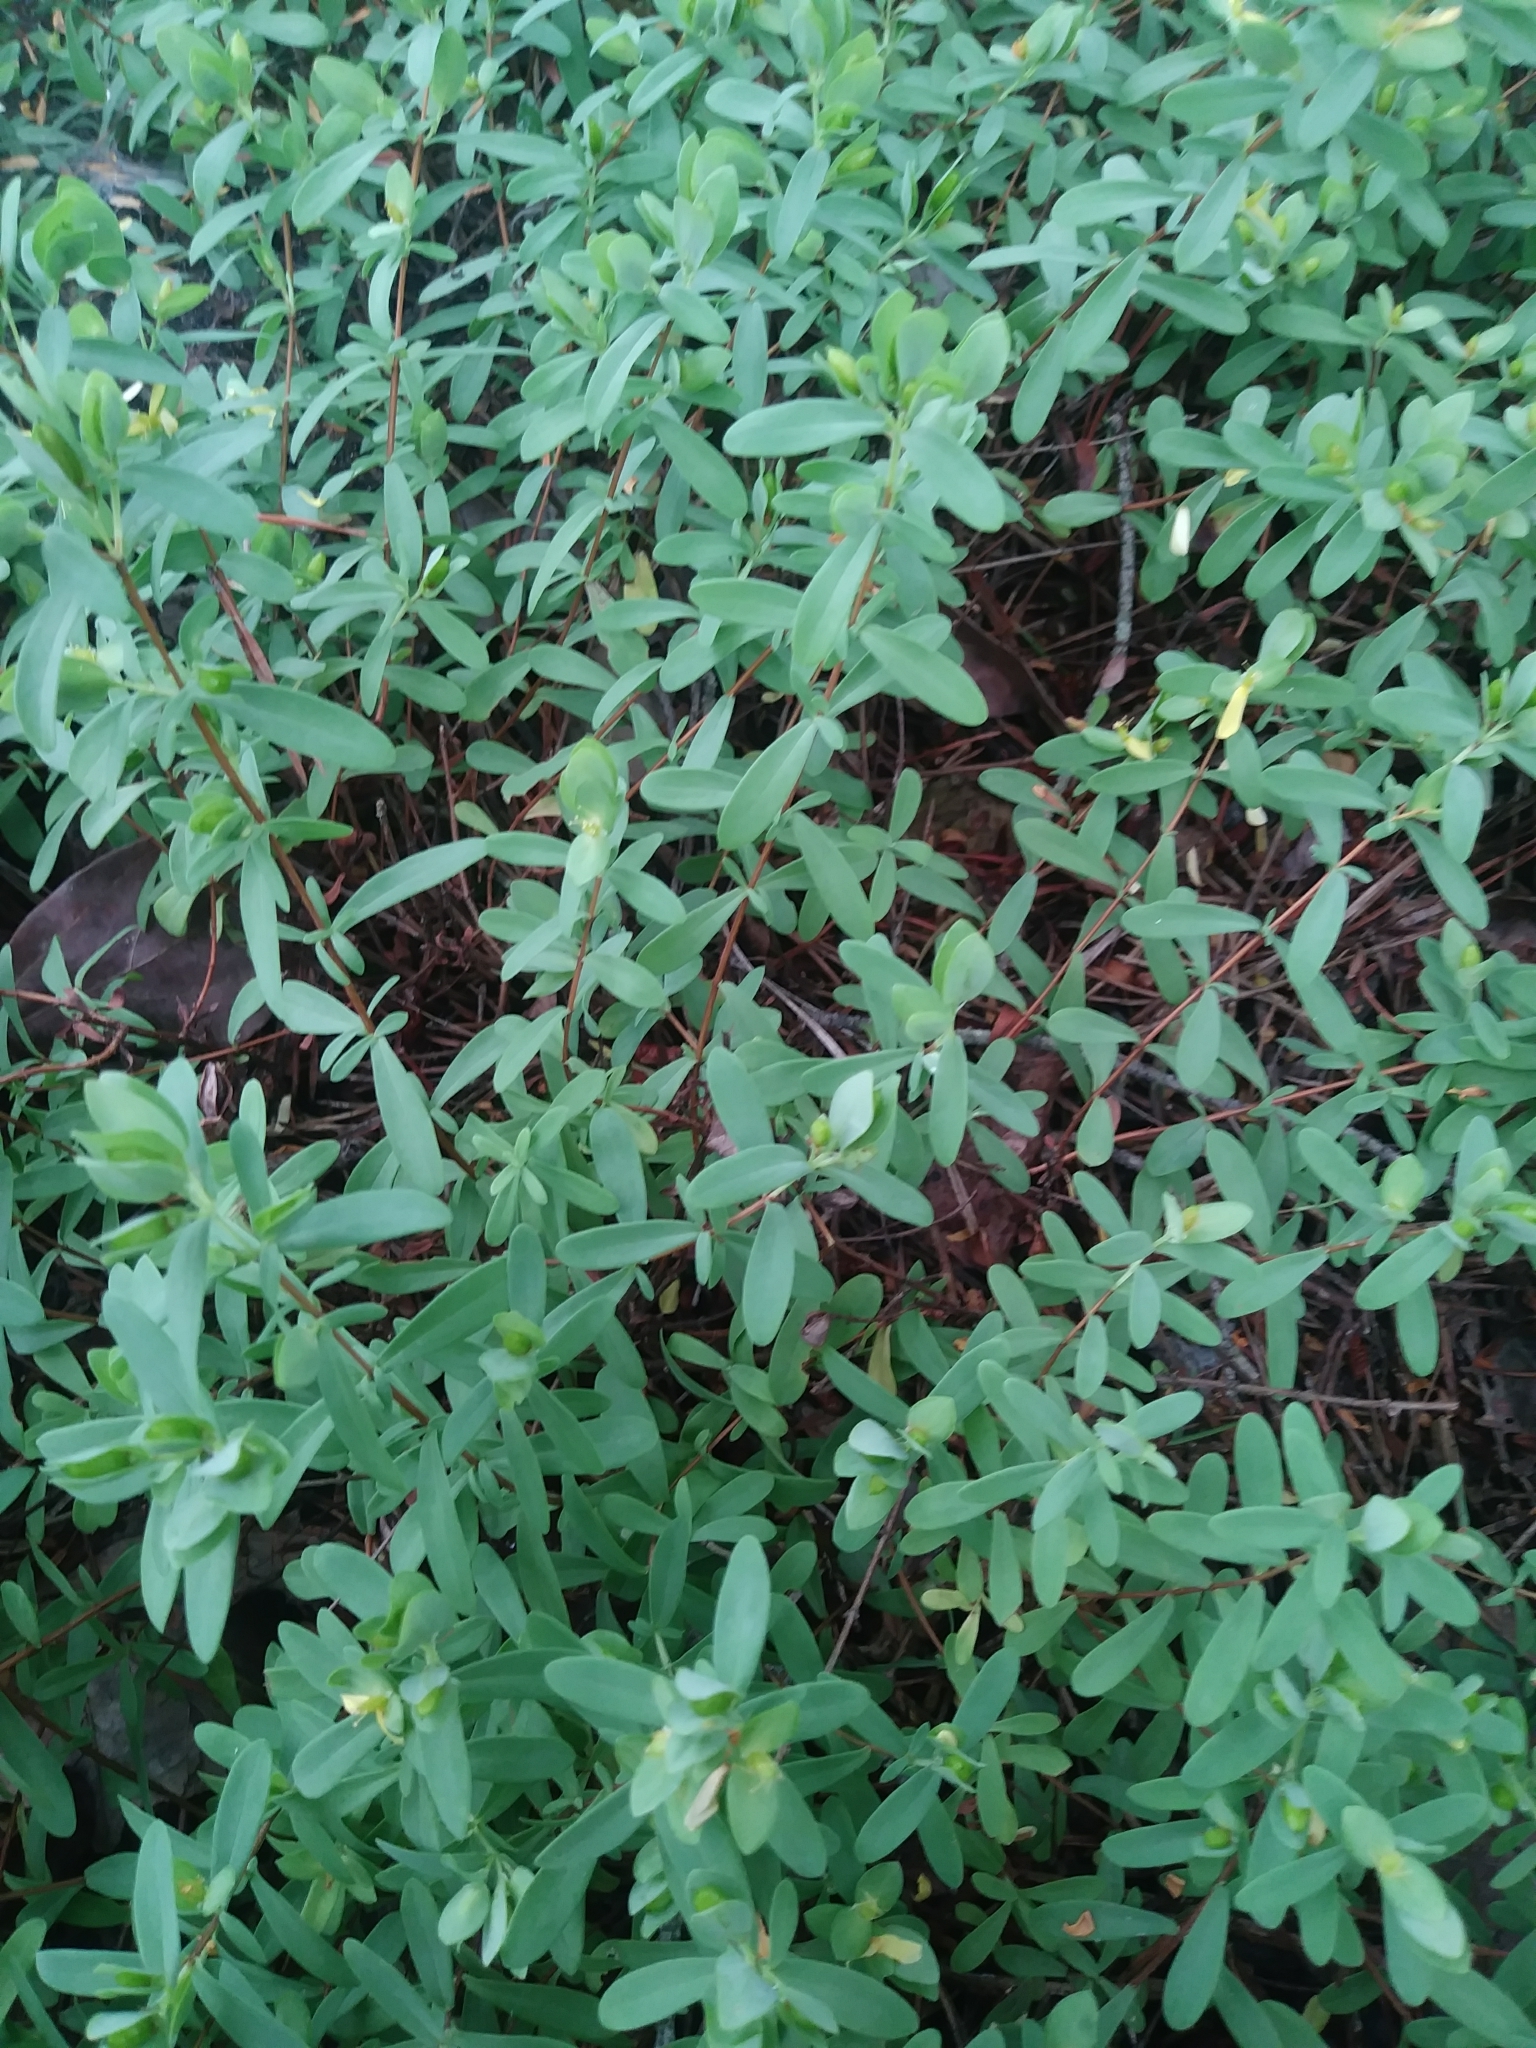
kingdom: Plantae
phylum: Tracheophyta
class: Magnoliopsida
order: Malpighiales
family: Hypericaceae
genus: Hypericum
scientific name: Hypericum hypericoides
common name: St. andrew's cross
